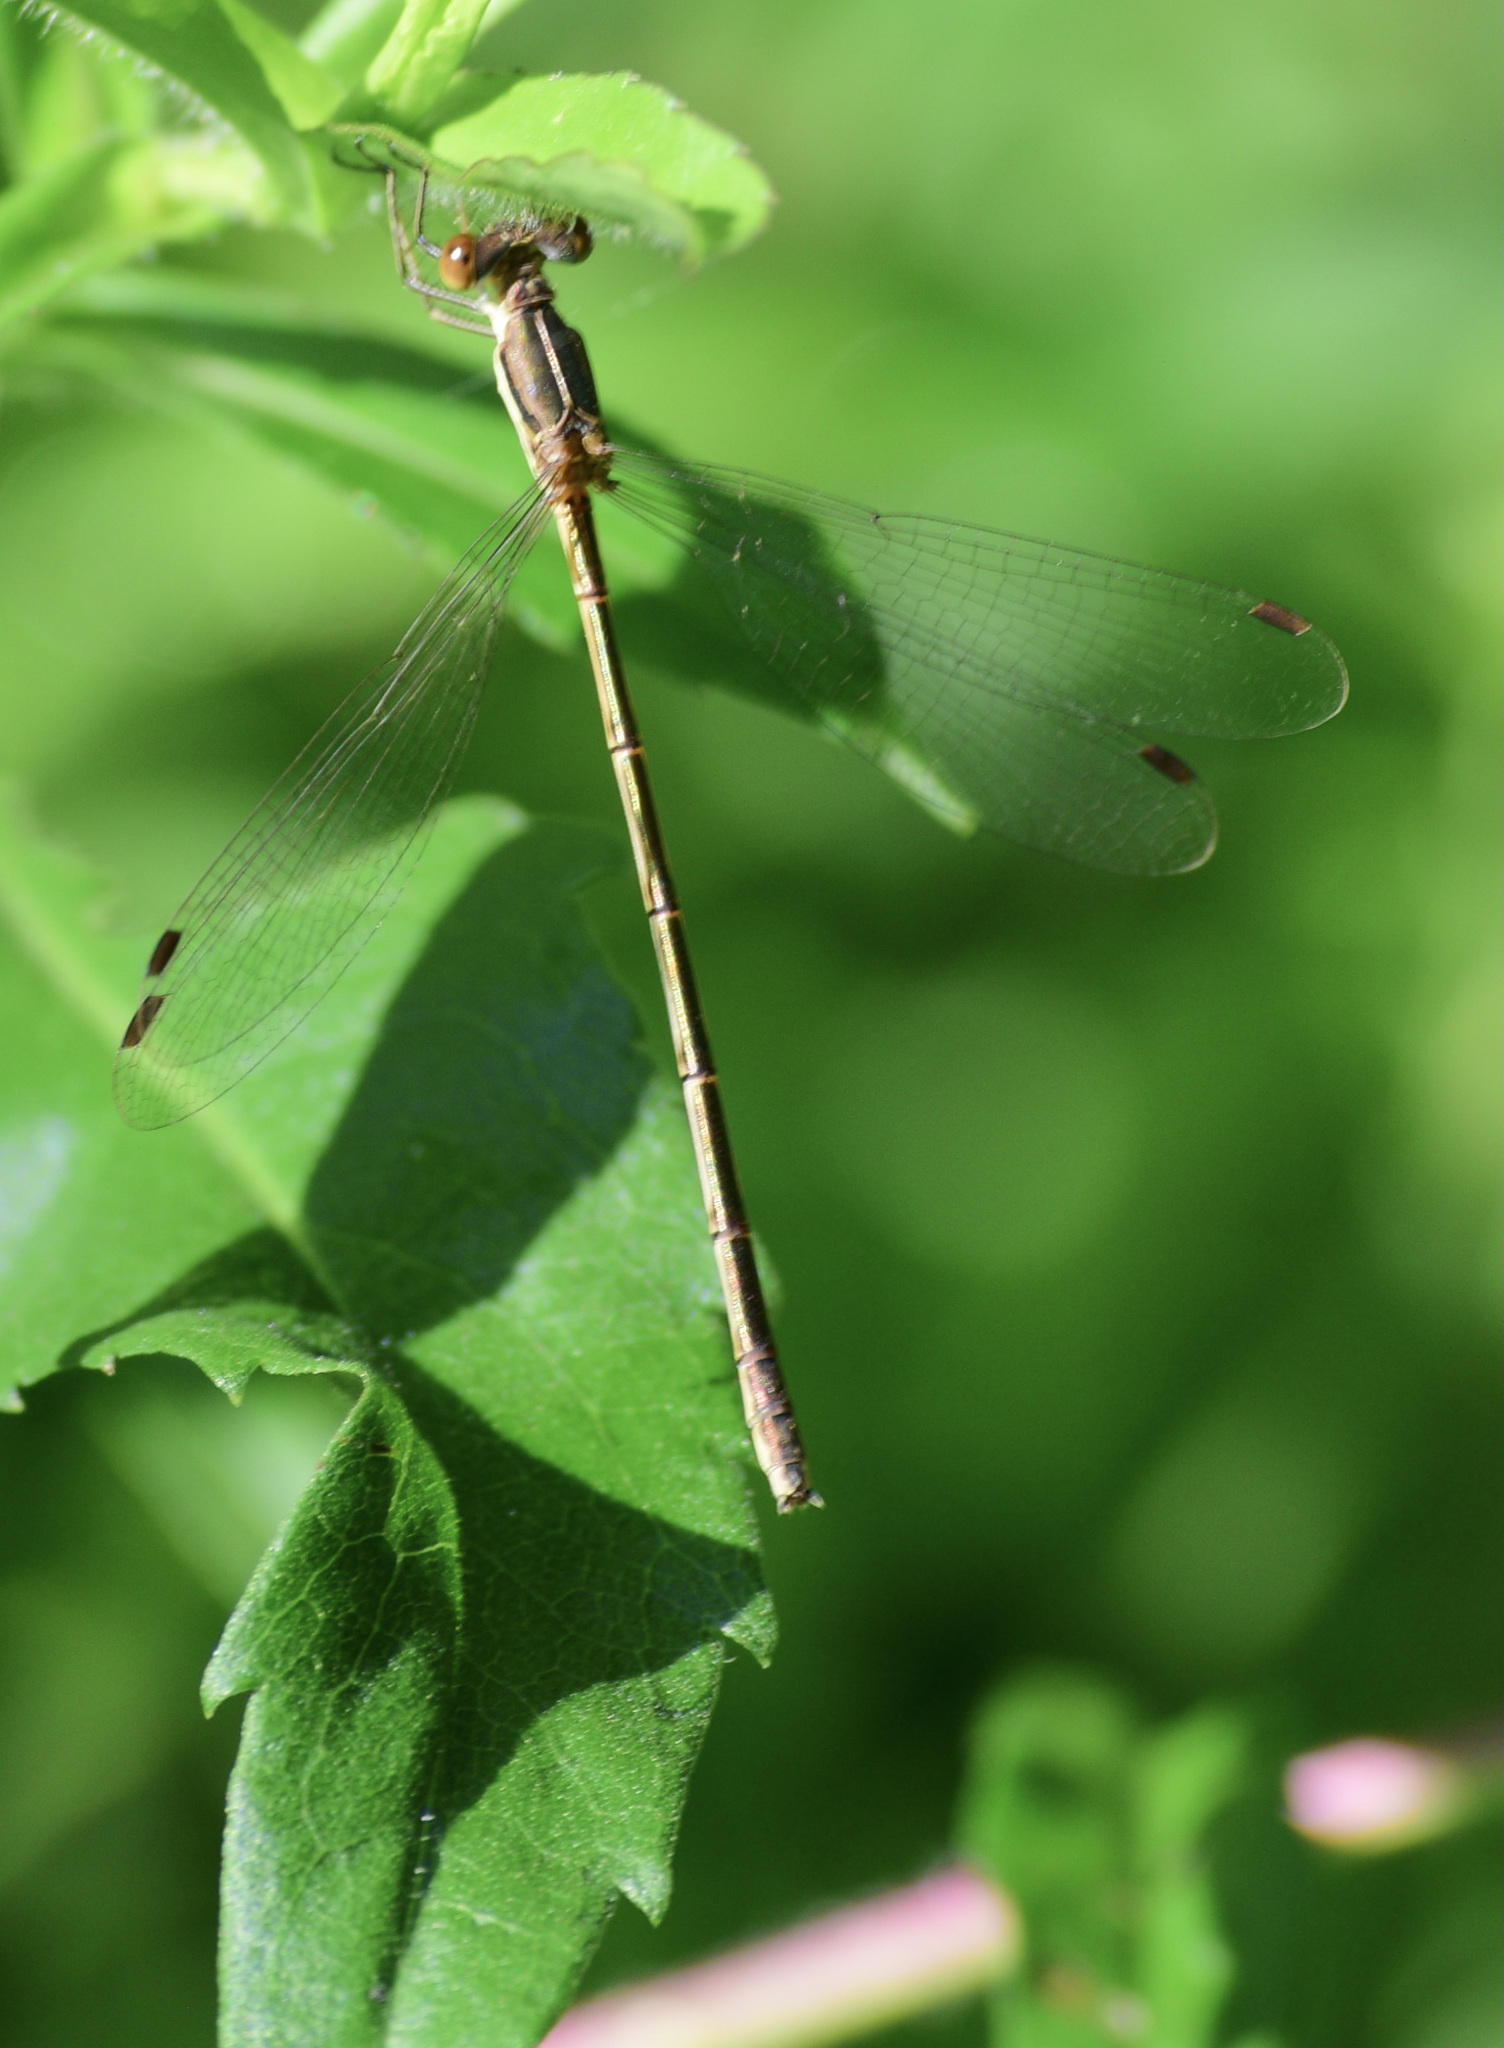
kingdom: Animalia
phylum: Arthropoda
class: Insecta
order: Odonata
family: Lestidae
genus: Lestes
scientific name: Lestes rectangularis
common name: Slender spreadwing
